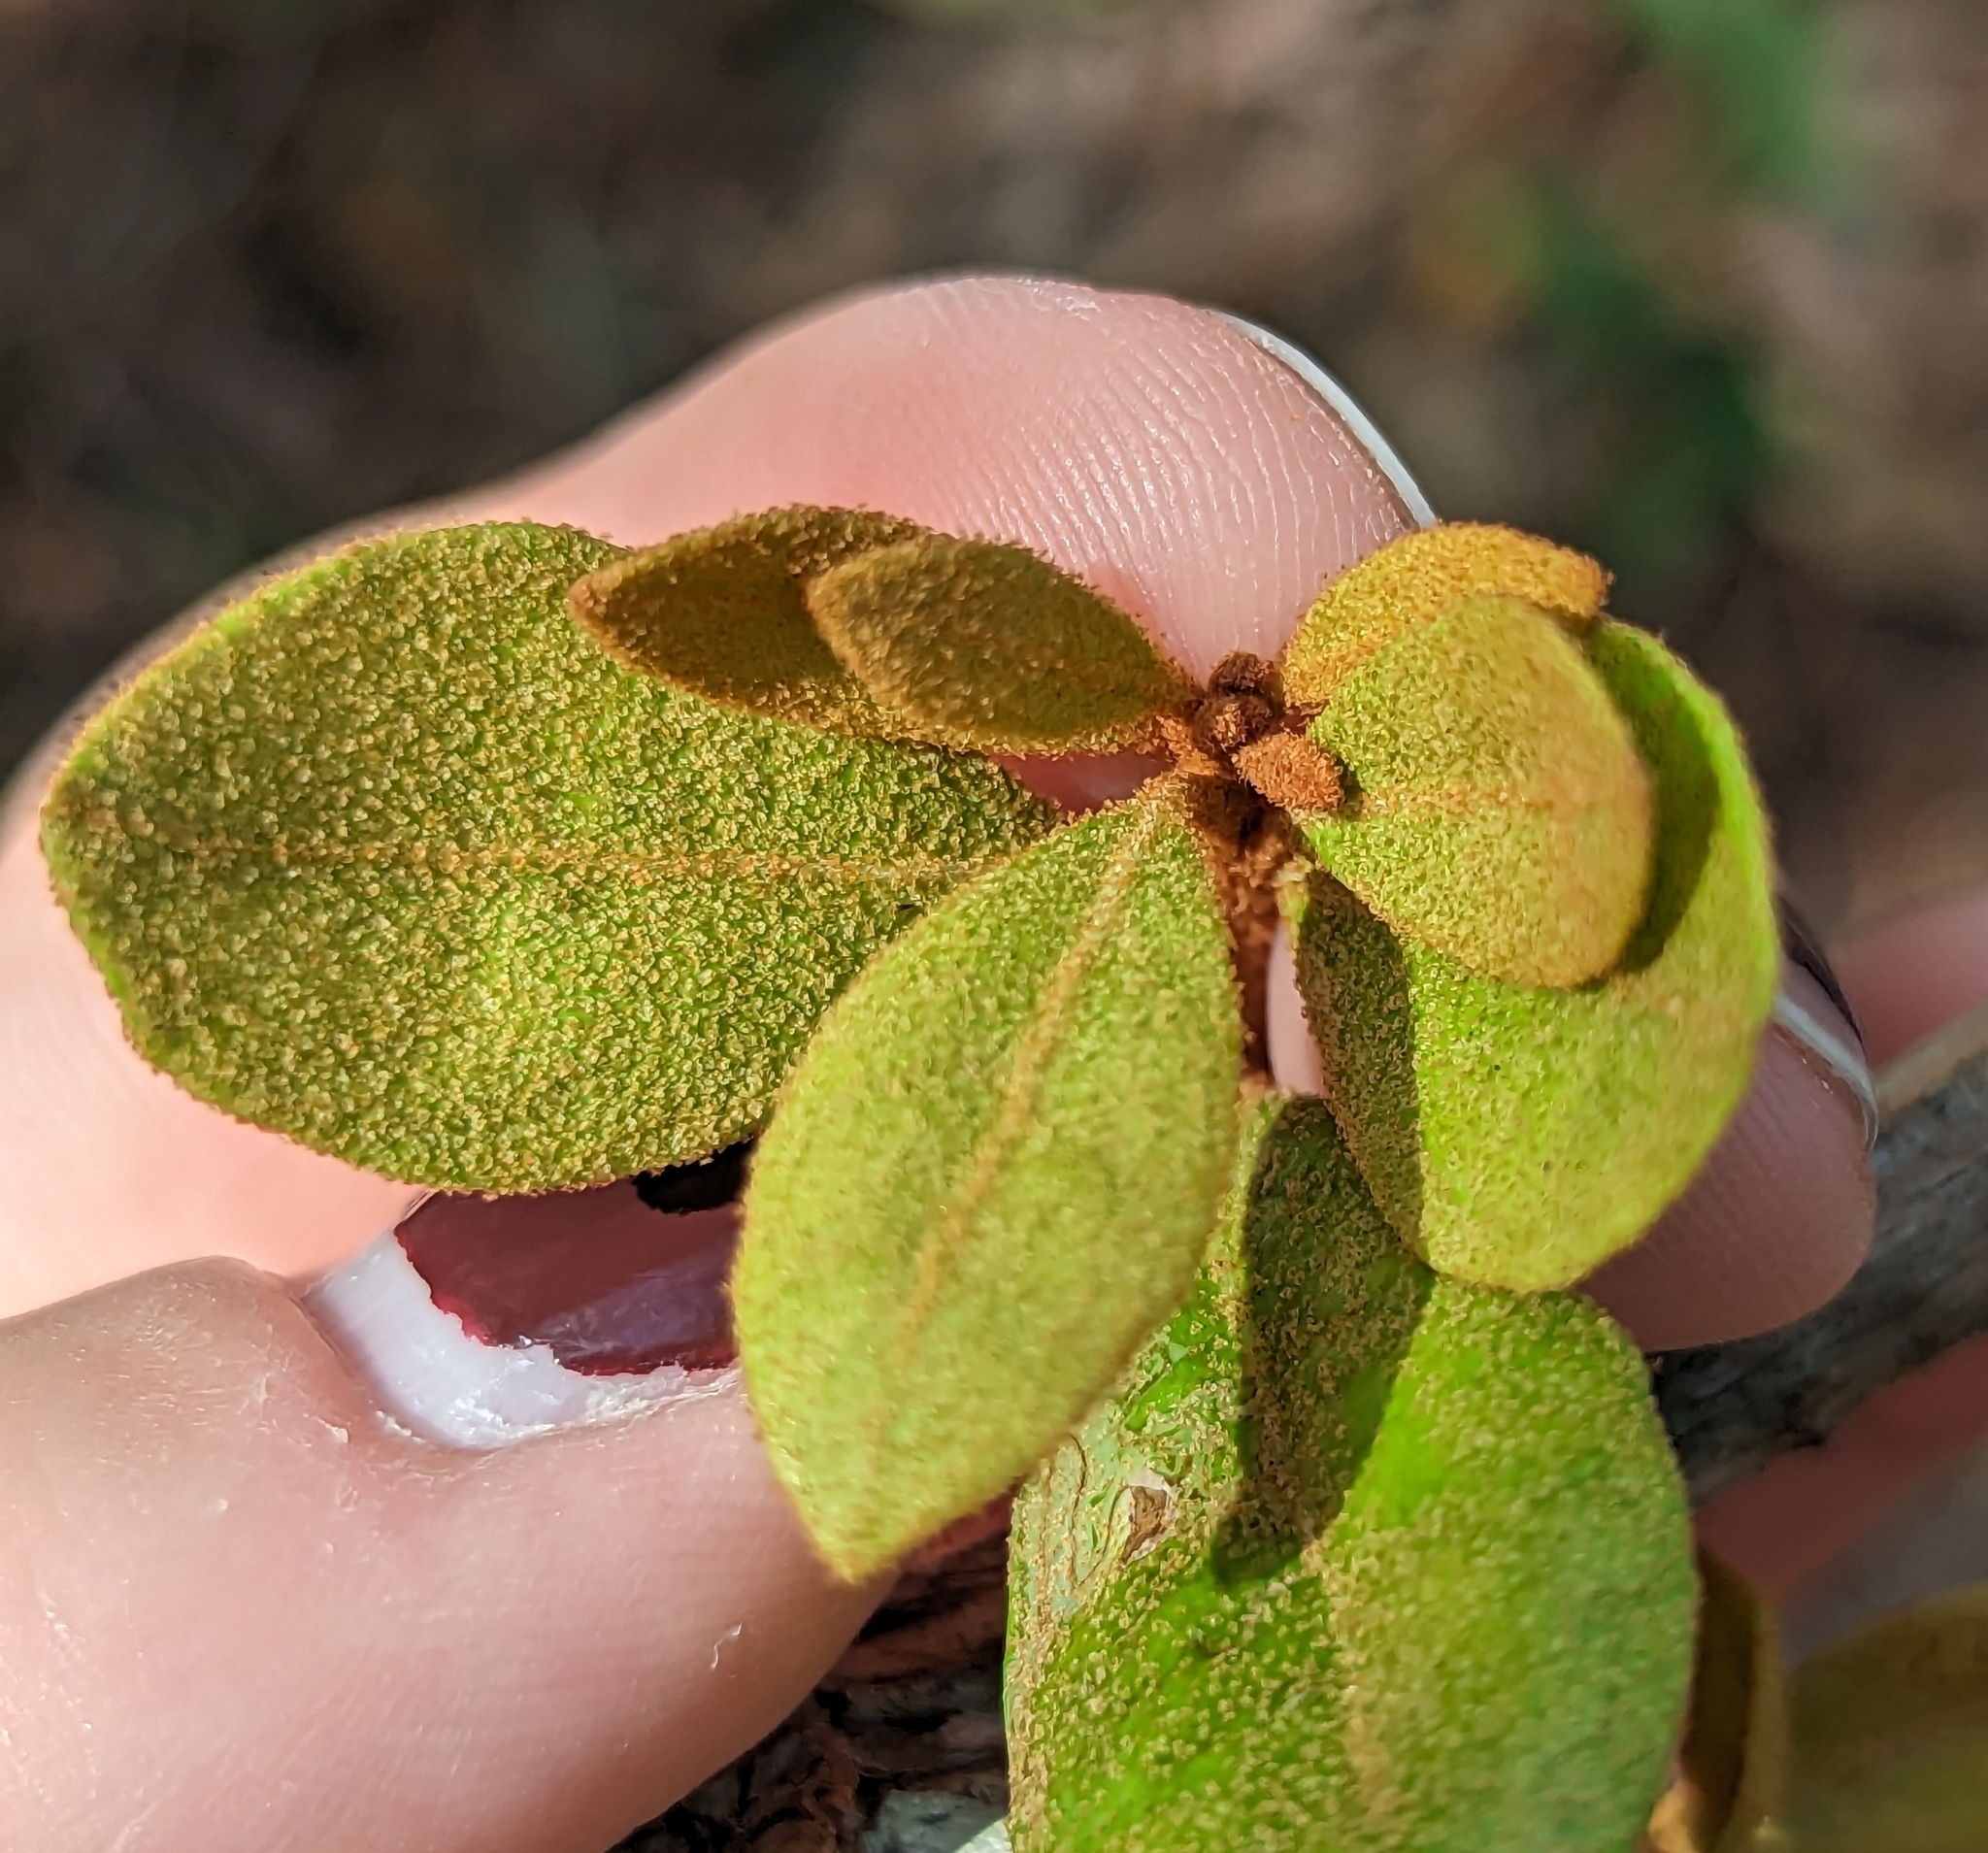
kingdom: Plantae
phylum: Tracheophyta
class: Magnoliopsida
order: Ericales
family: Ericaceae
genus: Lyonia
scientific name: Lyonia ferruginea
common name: Rusty lyonia
